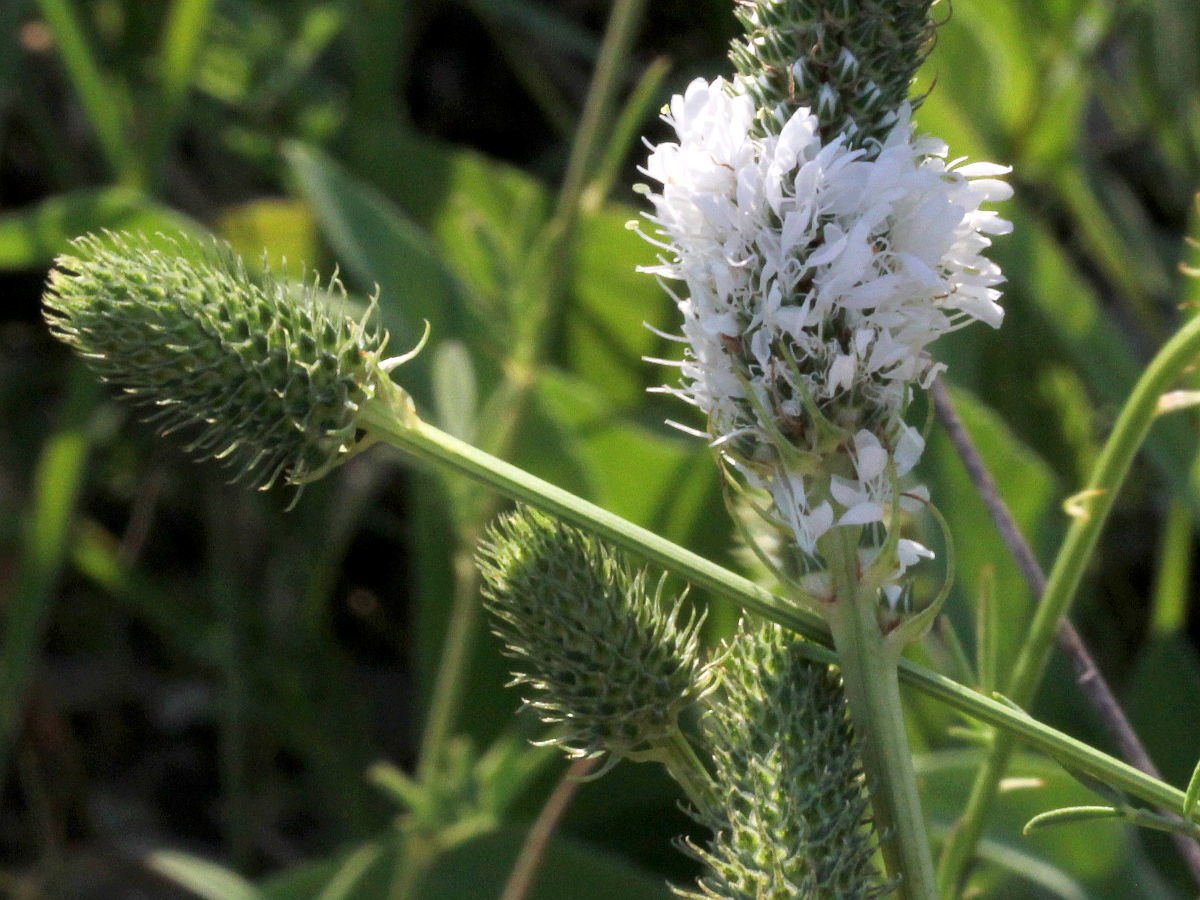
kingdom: Plantae
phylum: Tracheophyta
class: Magnoliopsida
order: Fabales
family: Fabaceae
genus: Dalea
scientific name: Dalea candida
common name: White prairie-clover
